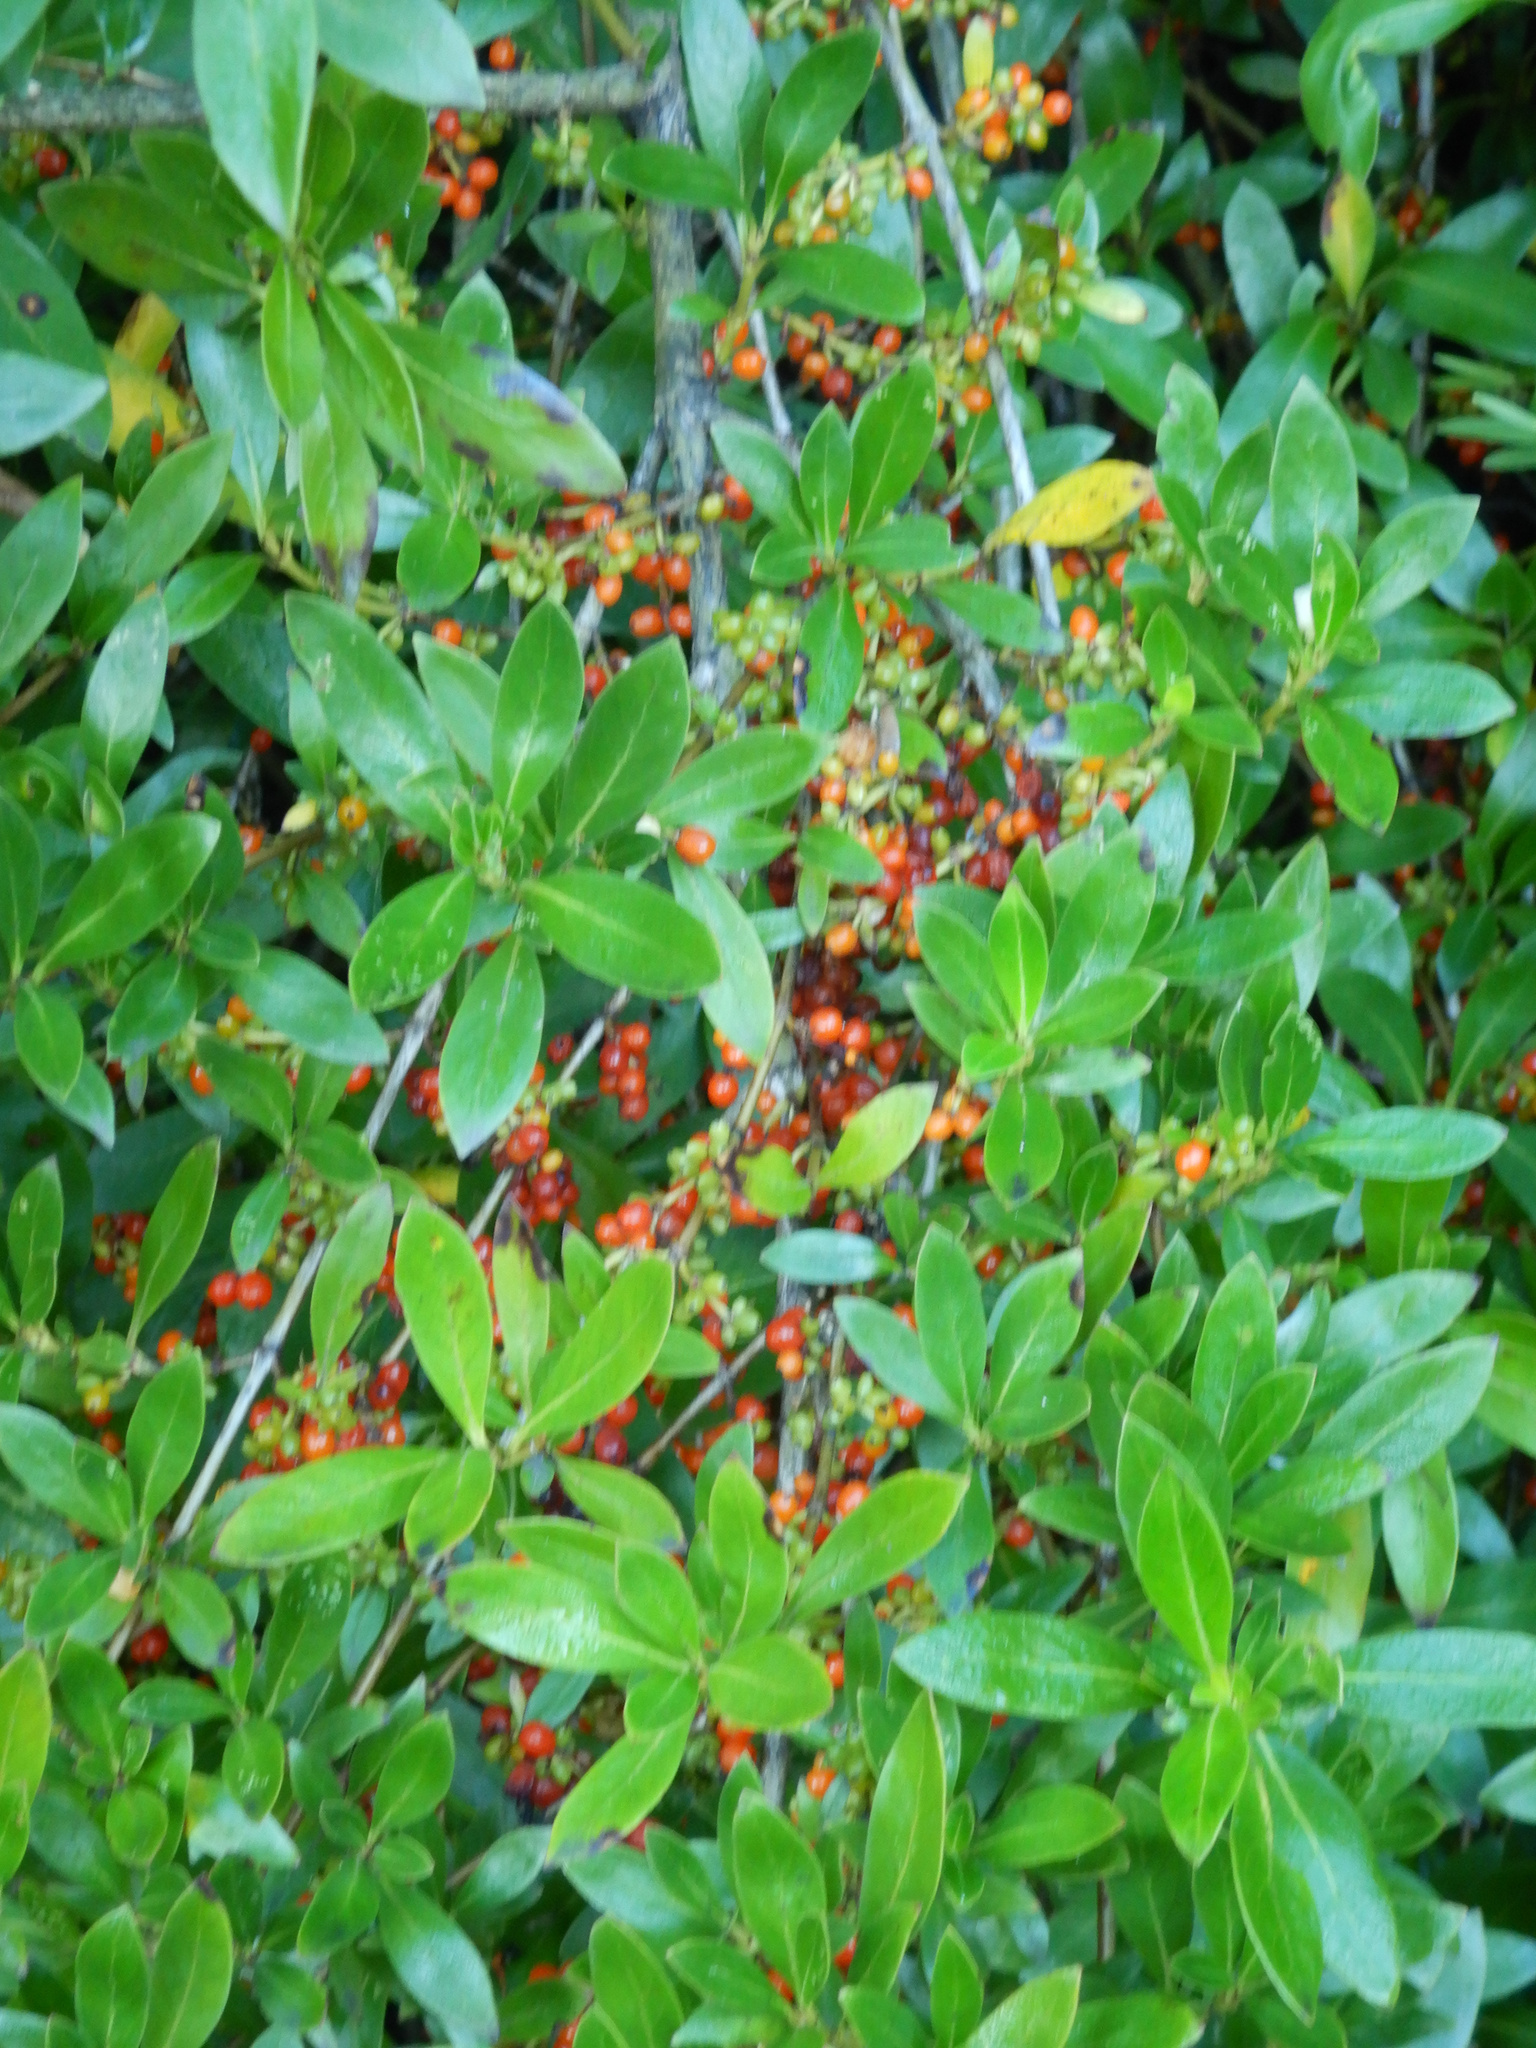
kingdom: Plantae
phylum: Tracheophyta
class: Magnoliopsida
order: Gentianales
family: Rubiaceae
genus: Coprosma
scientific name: Coprosma robusta
